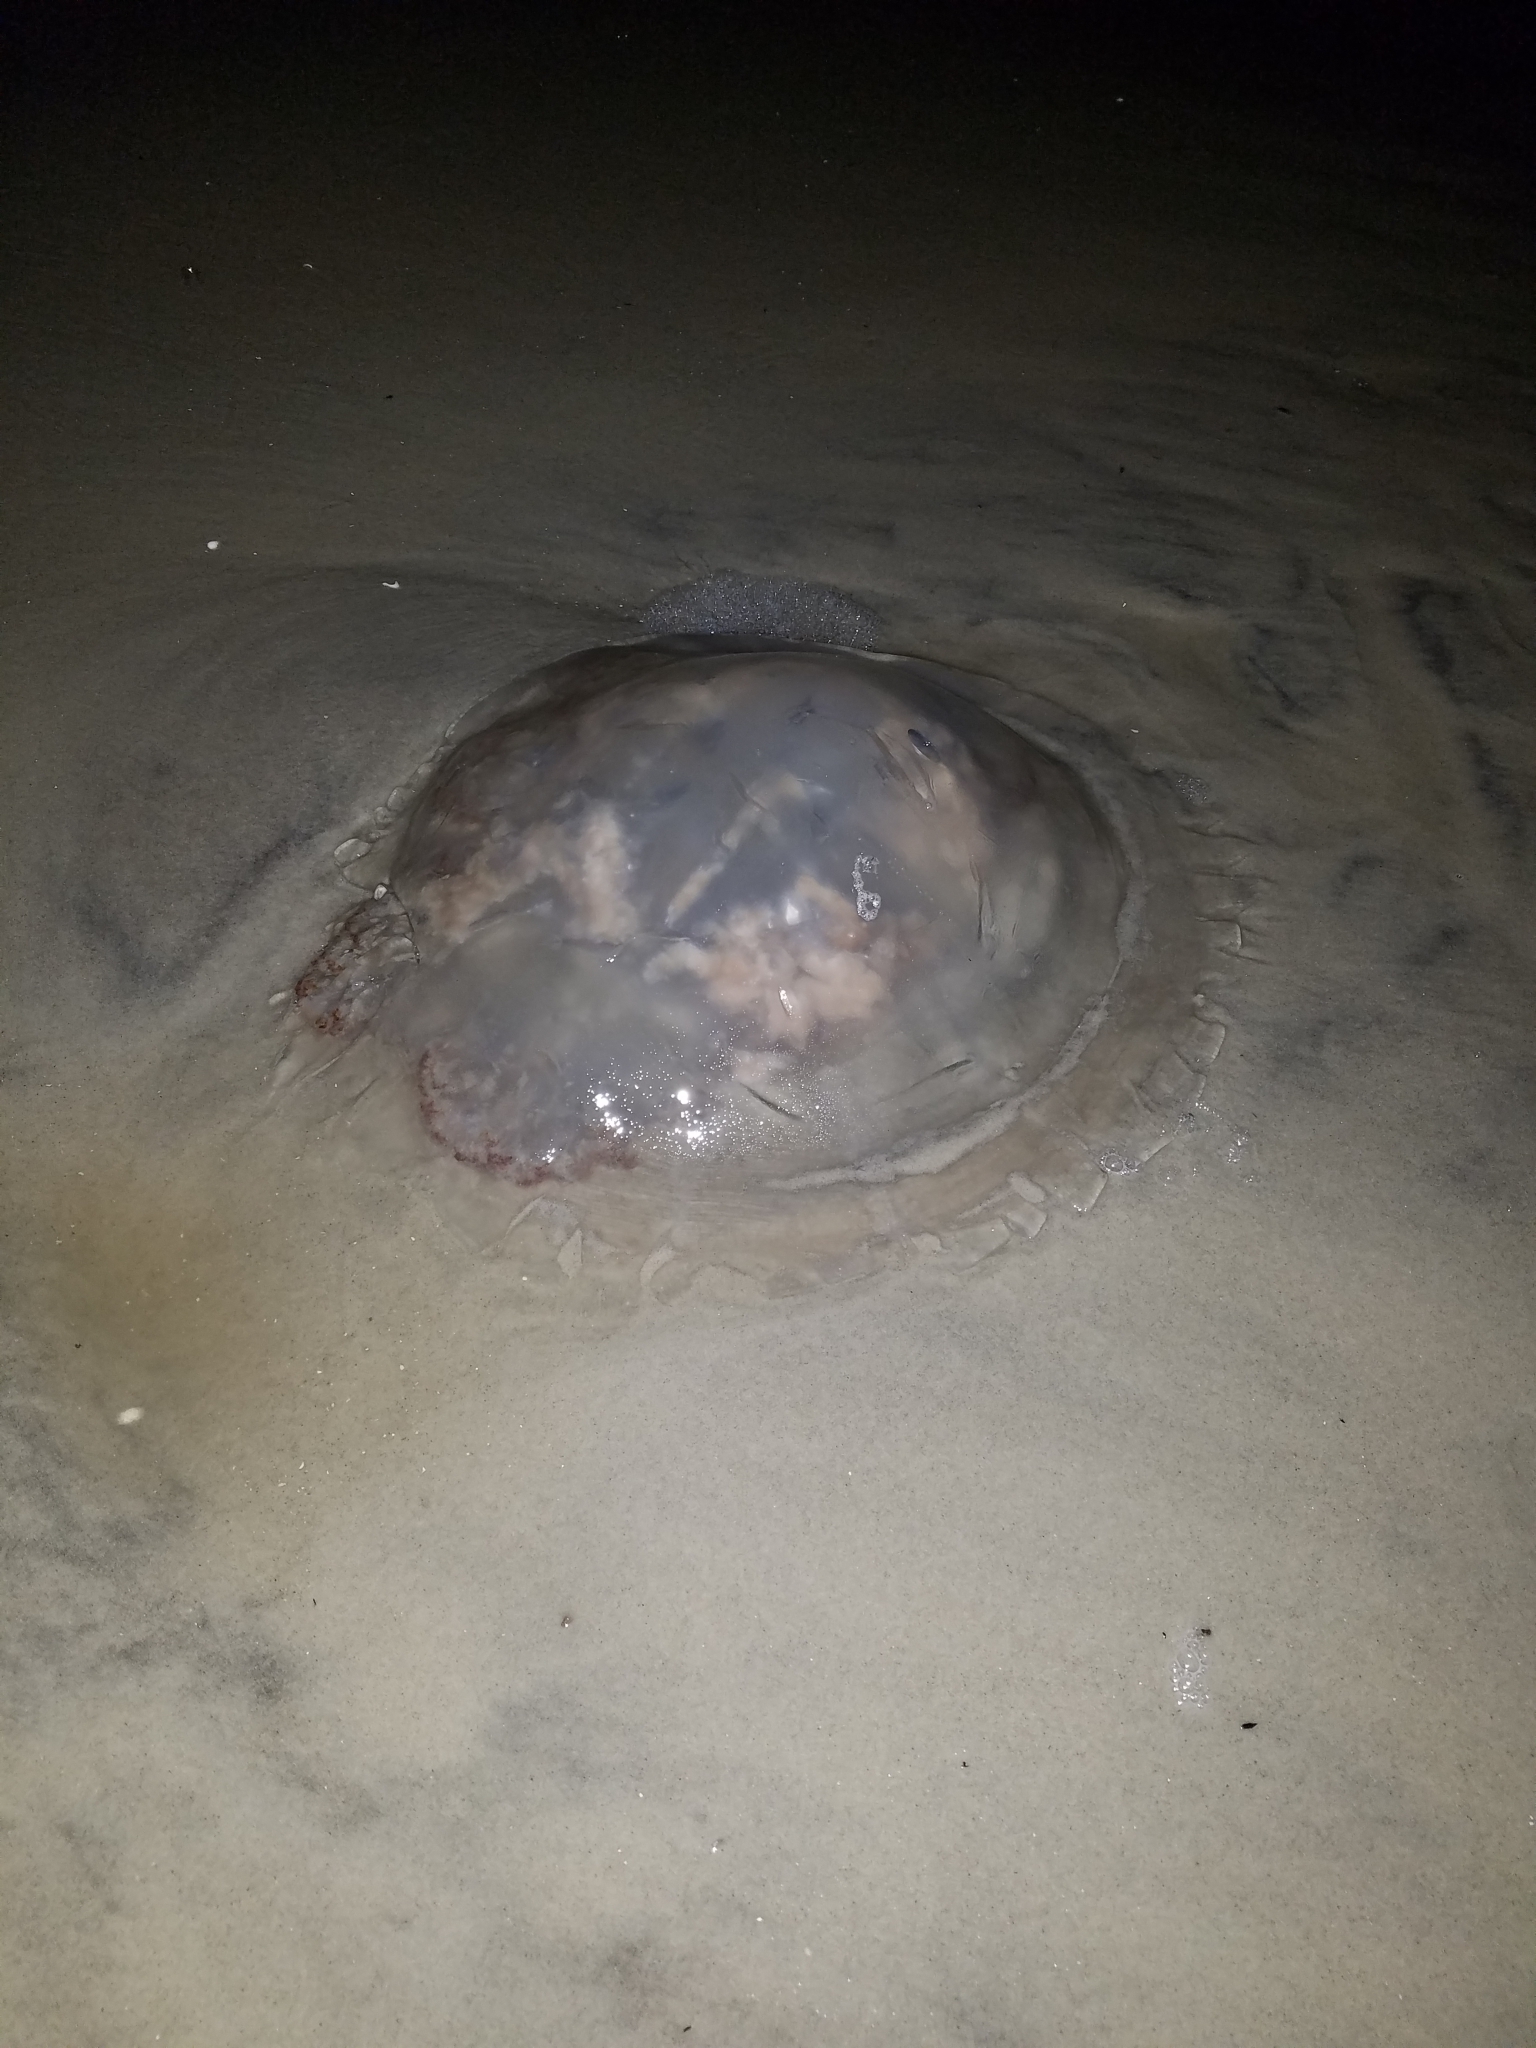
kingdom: Animalia
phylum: Cnidaria
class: Scyphozoa
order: Rhizostomeae
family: Rhizostomatidae
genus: Rhopilema
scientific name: Rhopilema verrilli
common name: Mushroom cap jellyfish
